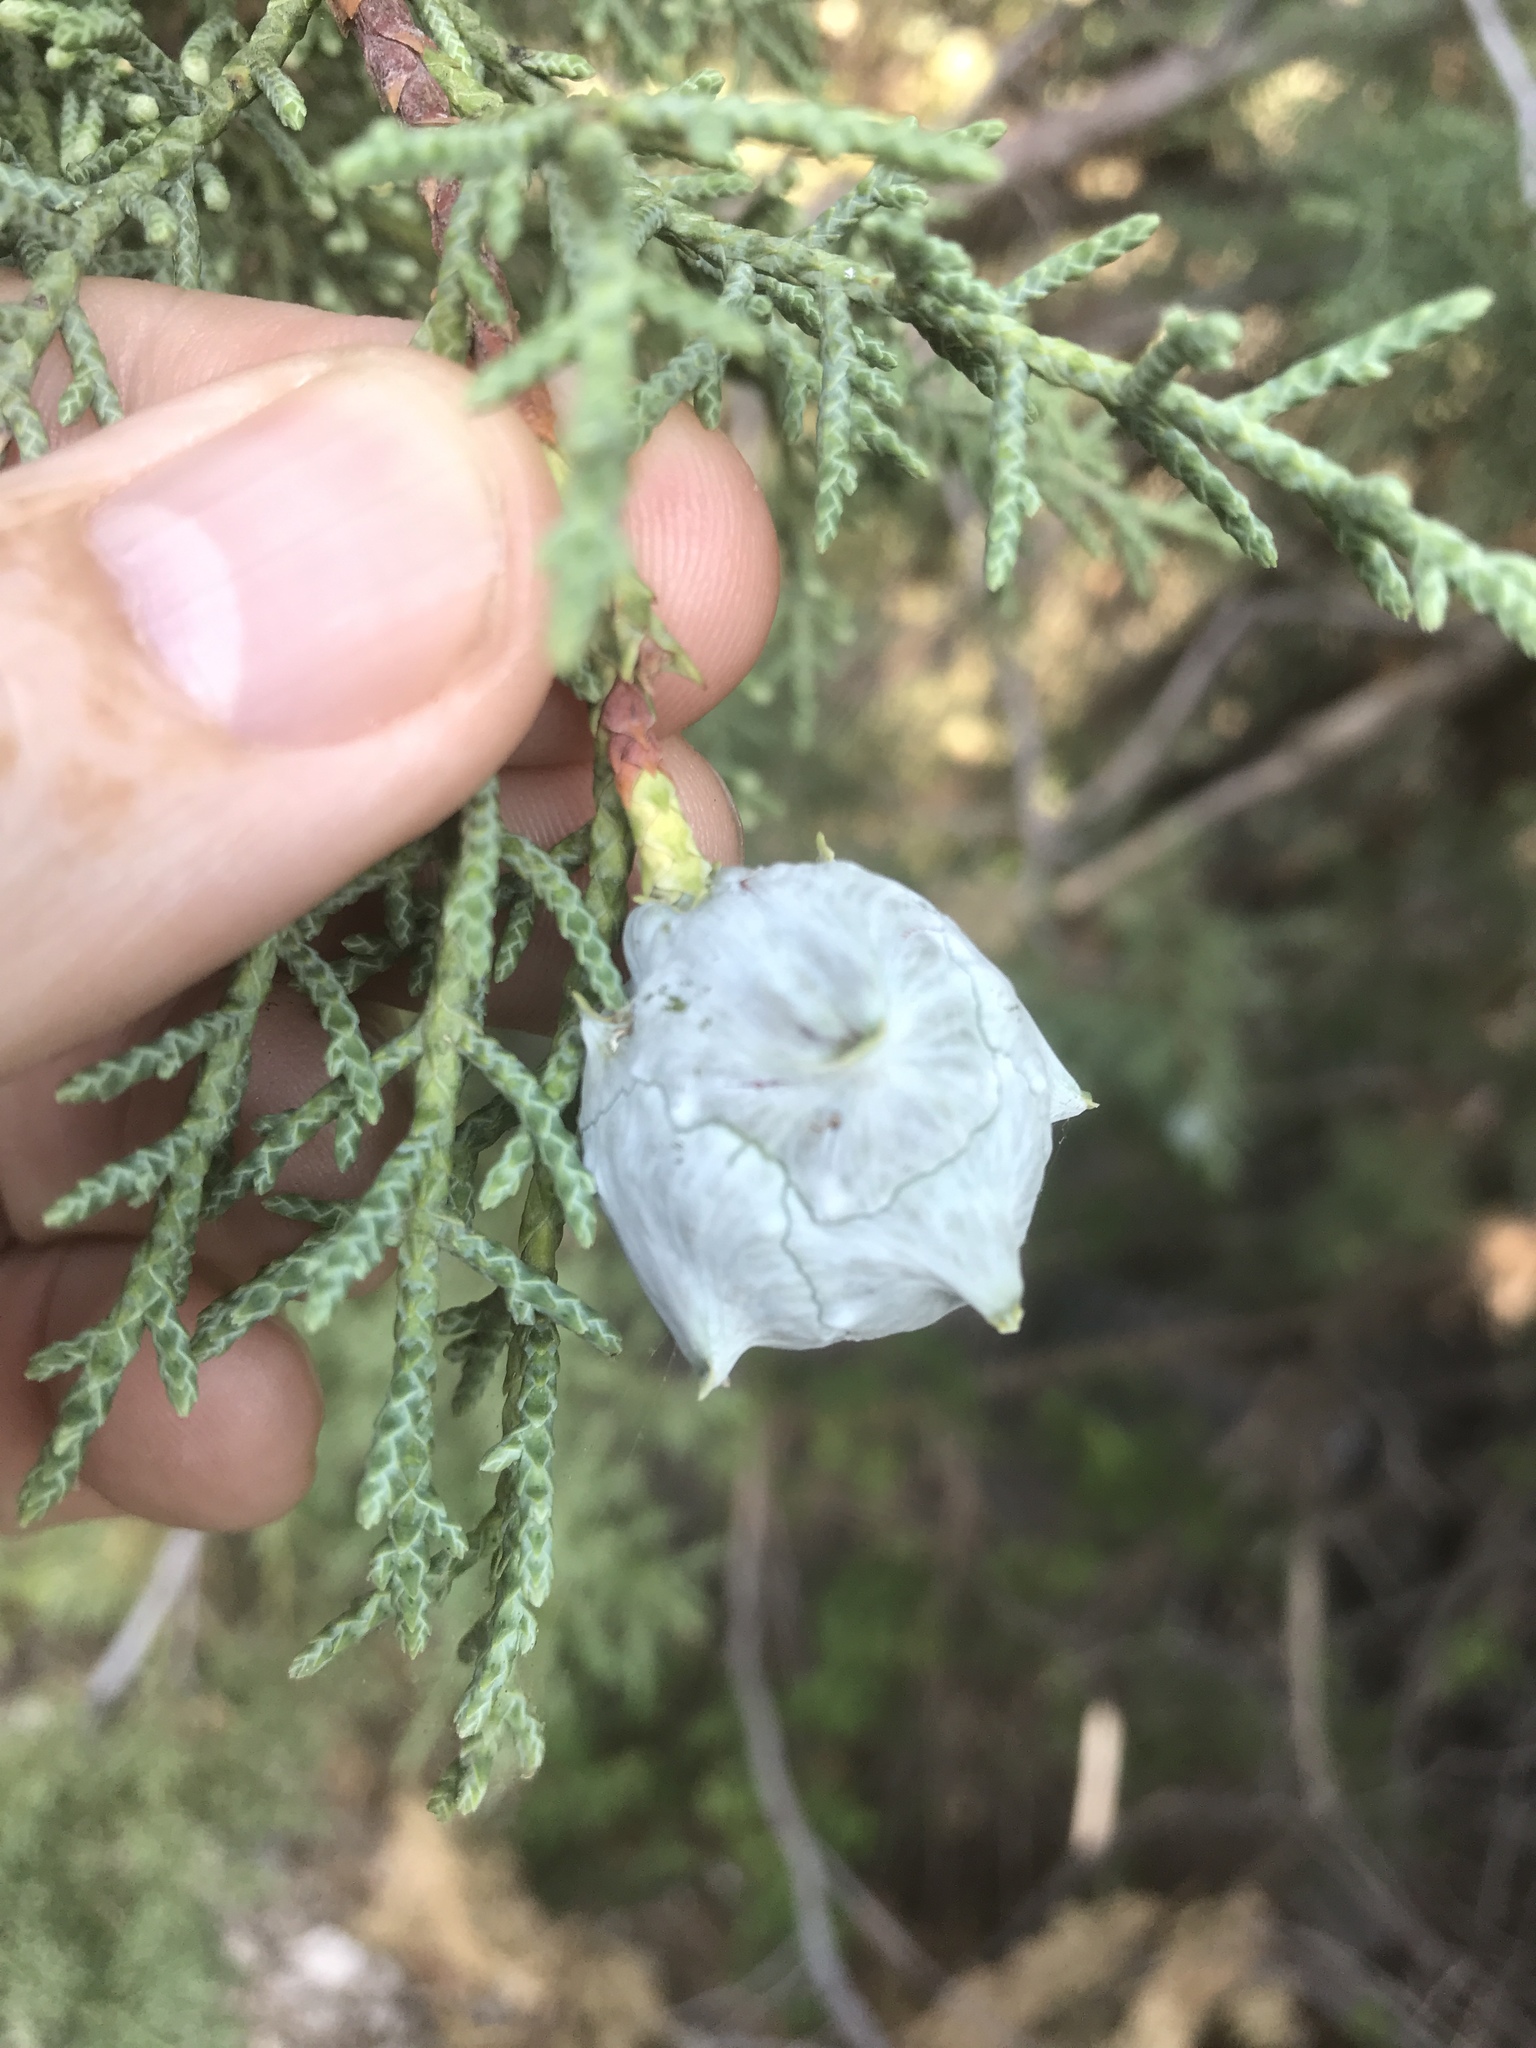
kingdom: Plantae
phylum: Tracheophyta
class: Pinopsida
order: Pinales
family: Cupressaceae
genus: Cupressus
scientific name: Cupressus arizonica
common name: Arizona cypress
